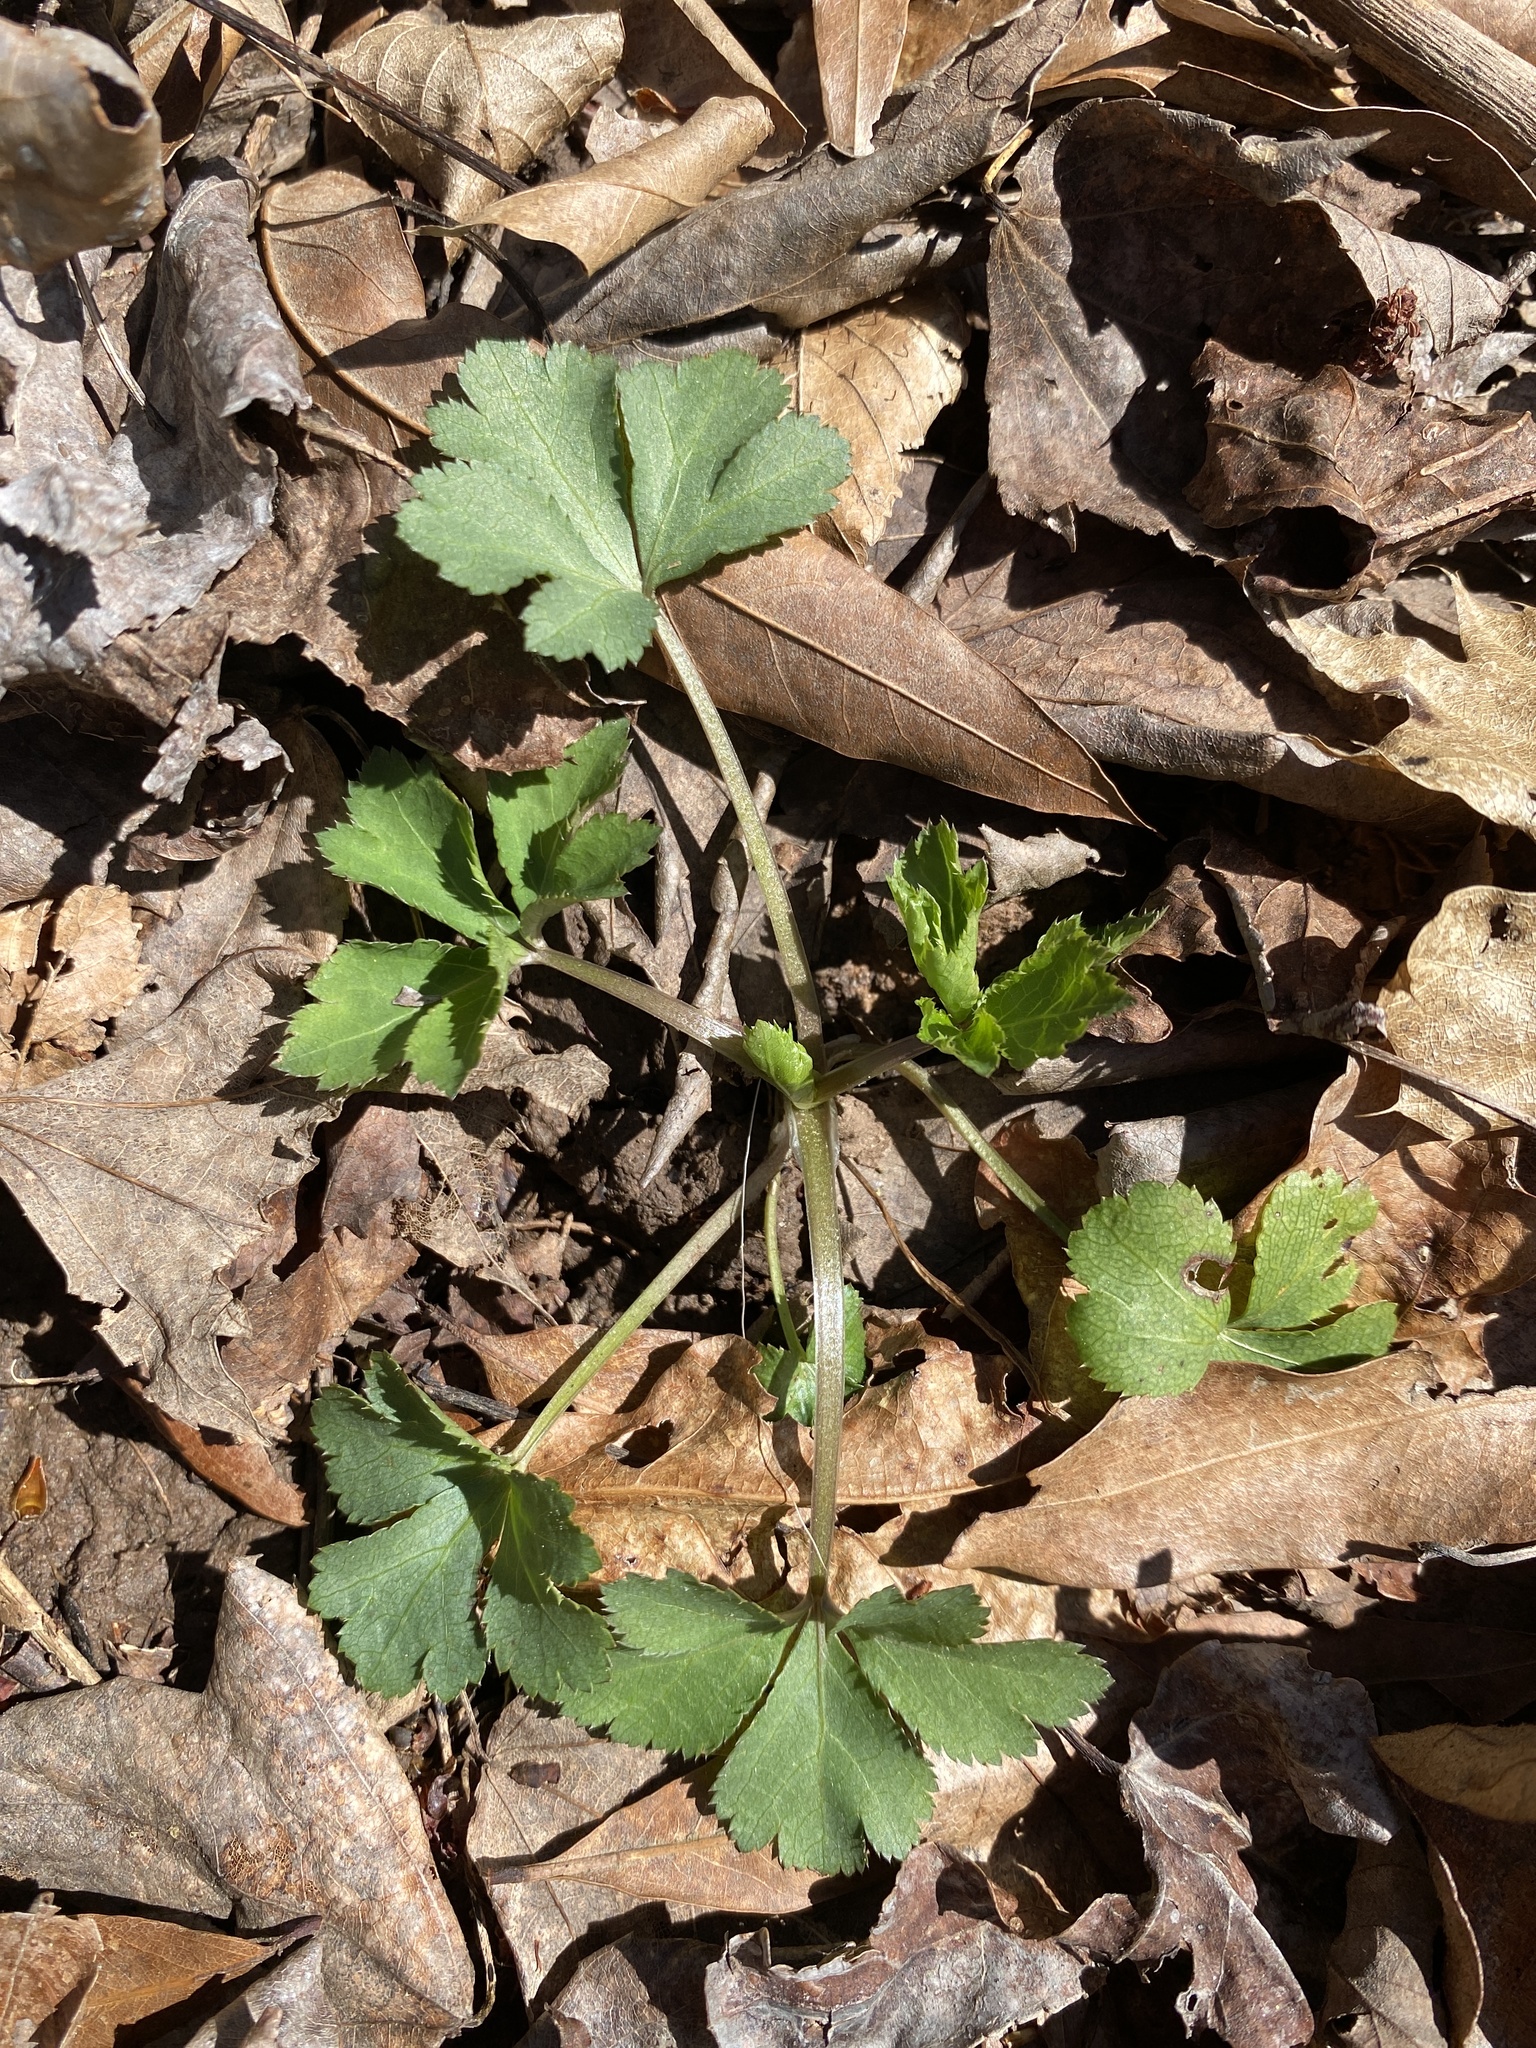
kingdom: Plantae
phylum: Tracheophyta
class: Magnoliopsida
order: Apiales
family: Apiaceae
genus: Sanicula
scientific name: Sanicula canadensis
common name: Canada sanicle
